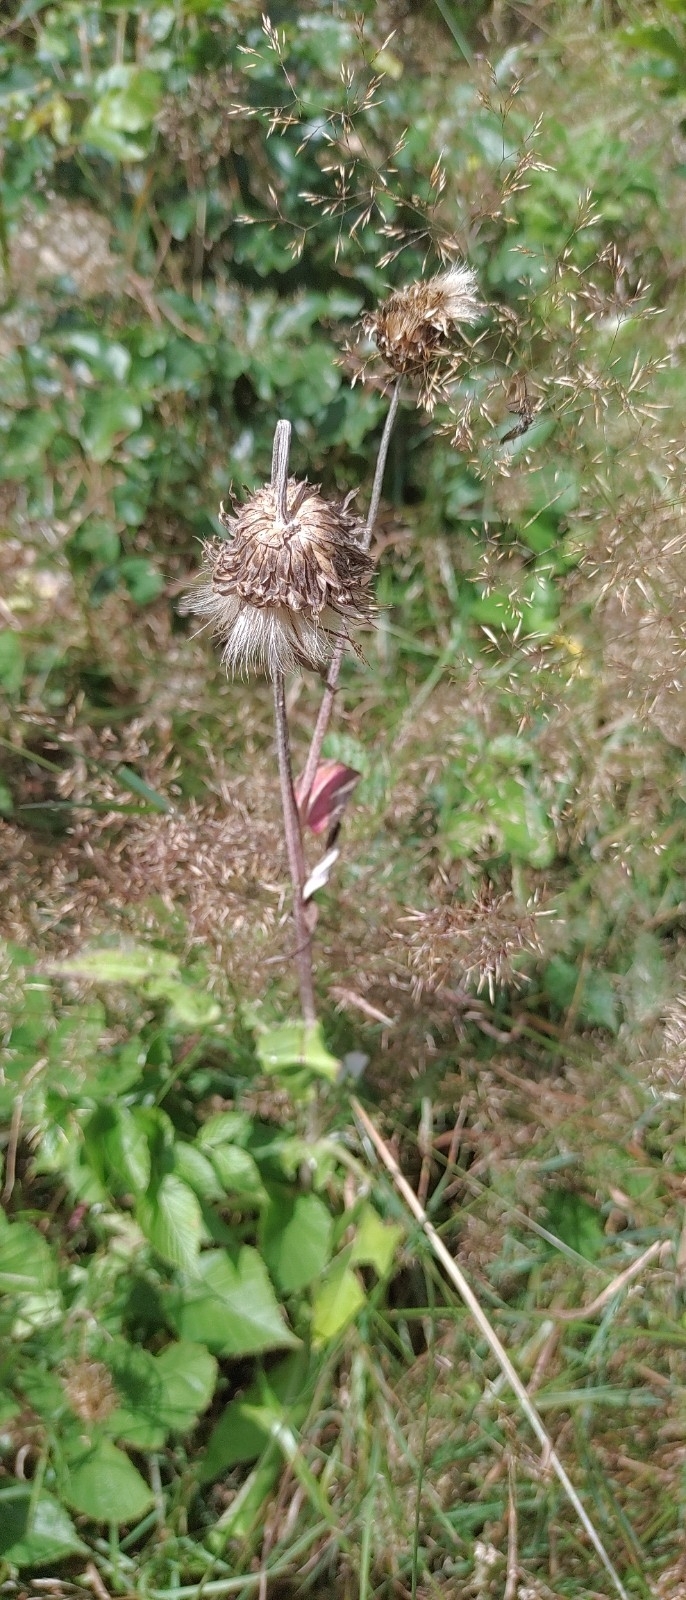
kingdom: Plantae
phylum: Tracheophyta
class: Magnoliopsida
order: Asterales
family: Asteraceae
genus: Cirsium
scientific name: Cirsium heterophyllum
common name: Melancholy thistle
